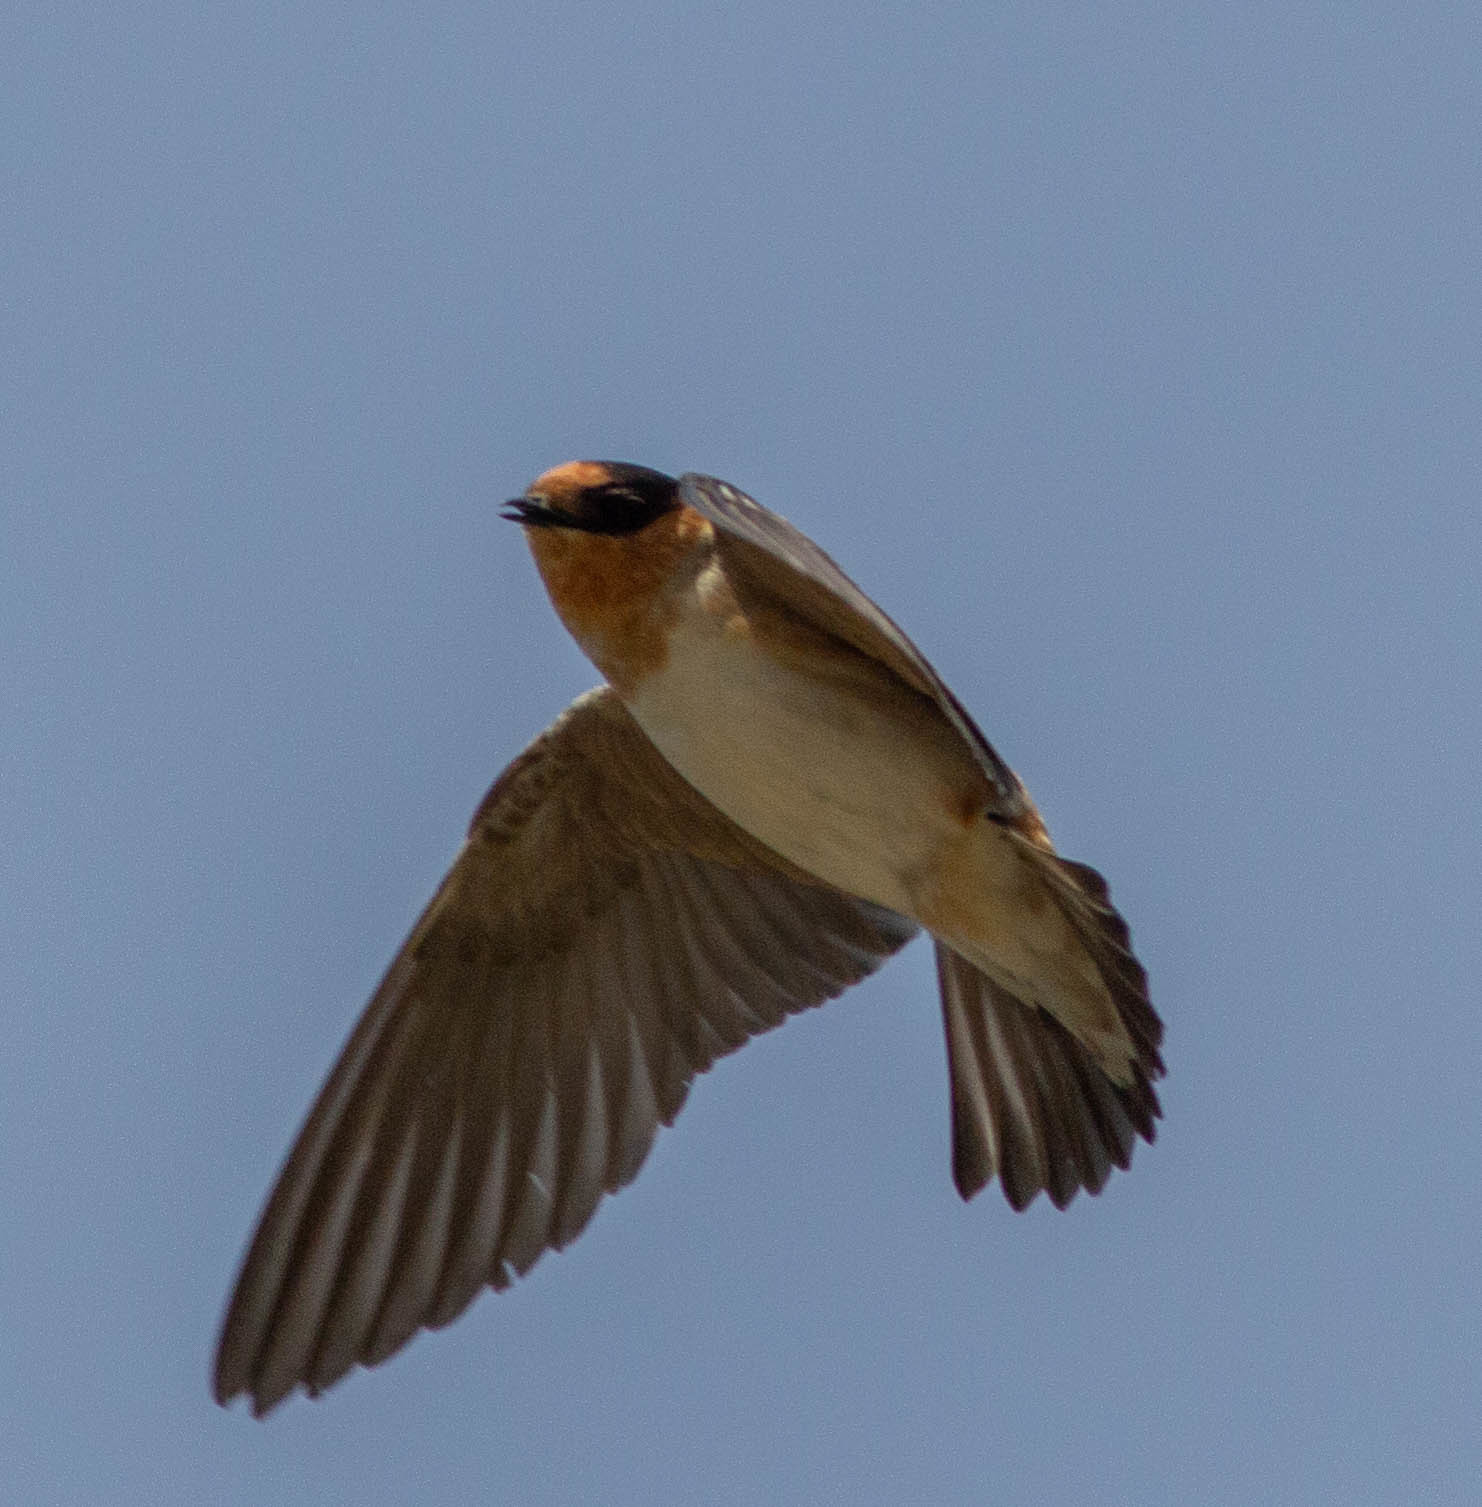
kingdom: Animalia
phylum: Chordata
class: Aves
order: Passeriformes
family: Hirundinidae
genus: Petrochelidon
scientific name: Petrochelidon fulva
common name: Cave swallow
